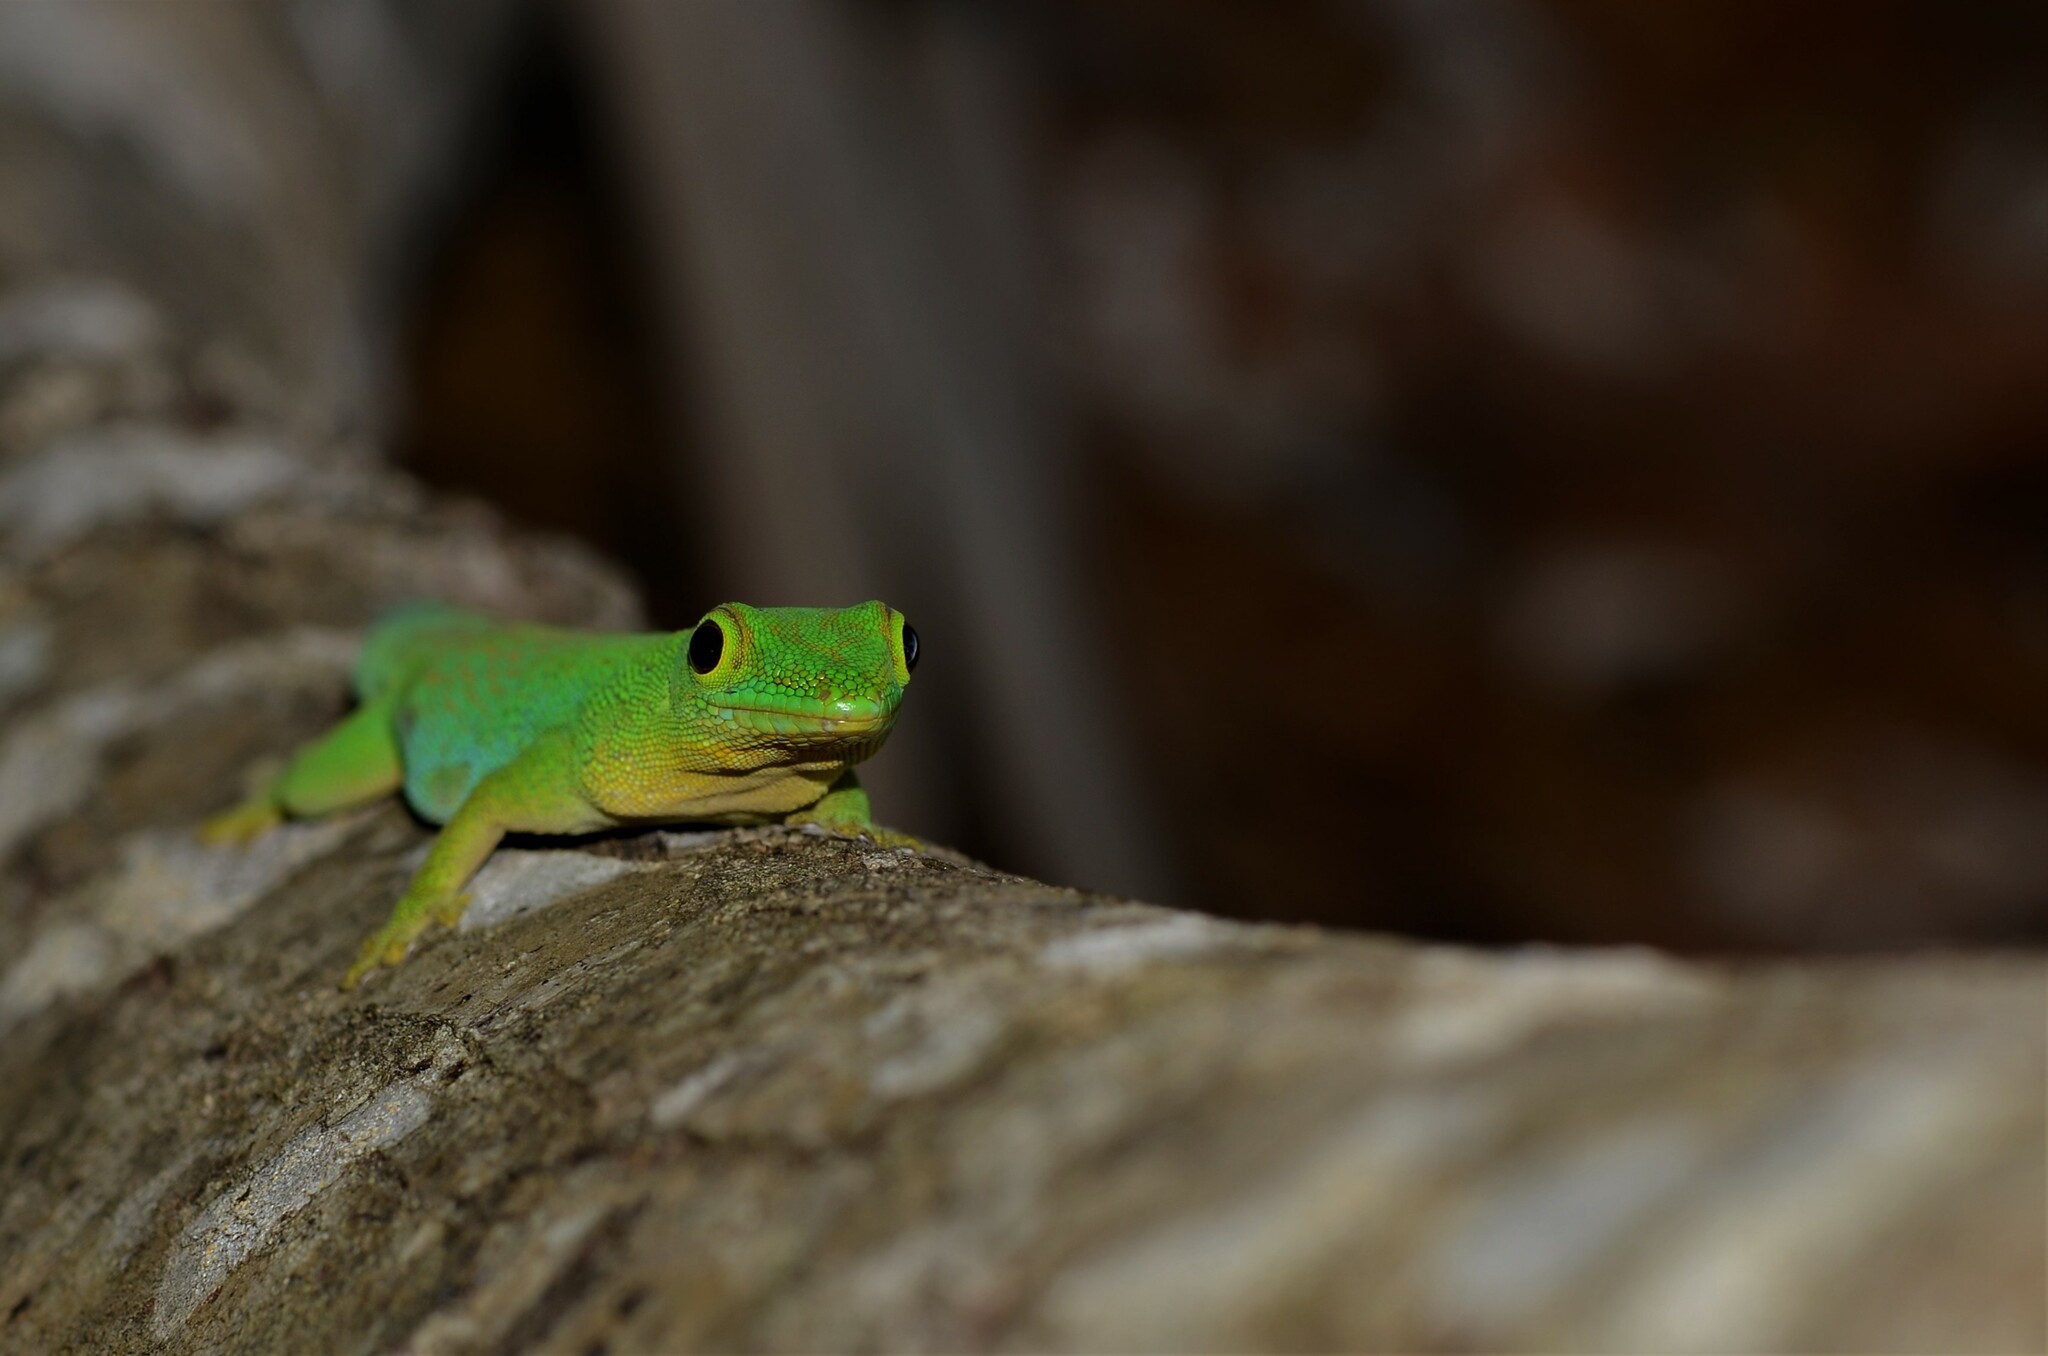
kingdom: Animalia
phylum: Chordata
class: Squamata
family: Gekkonidae
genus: Phelsuma
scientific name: Phelsuma sundbergi
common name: Seychelles giant day gecko
